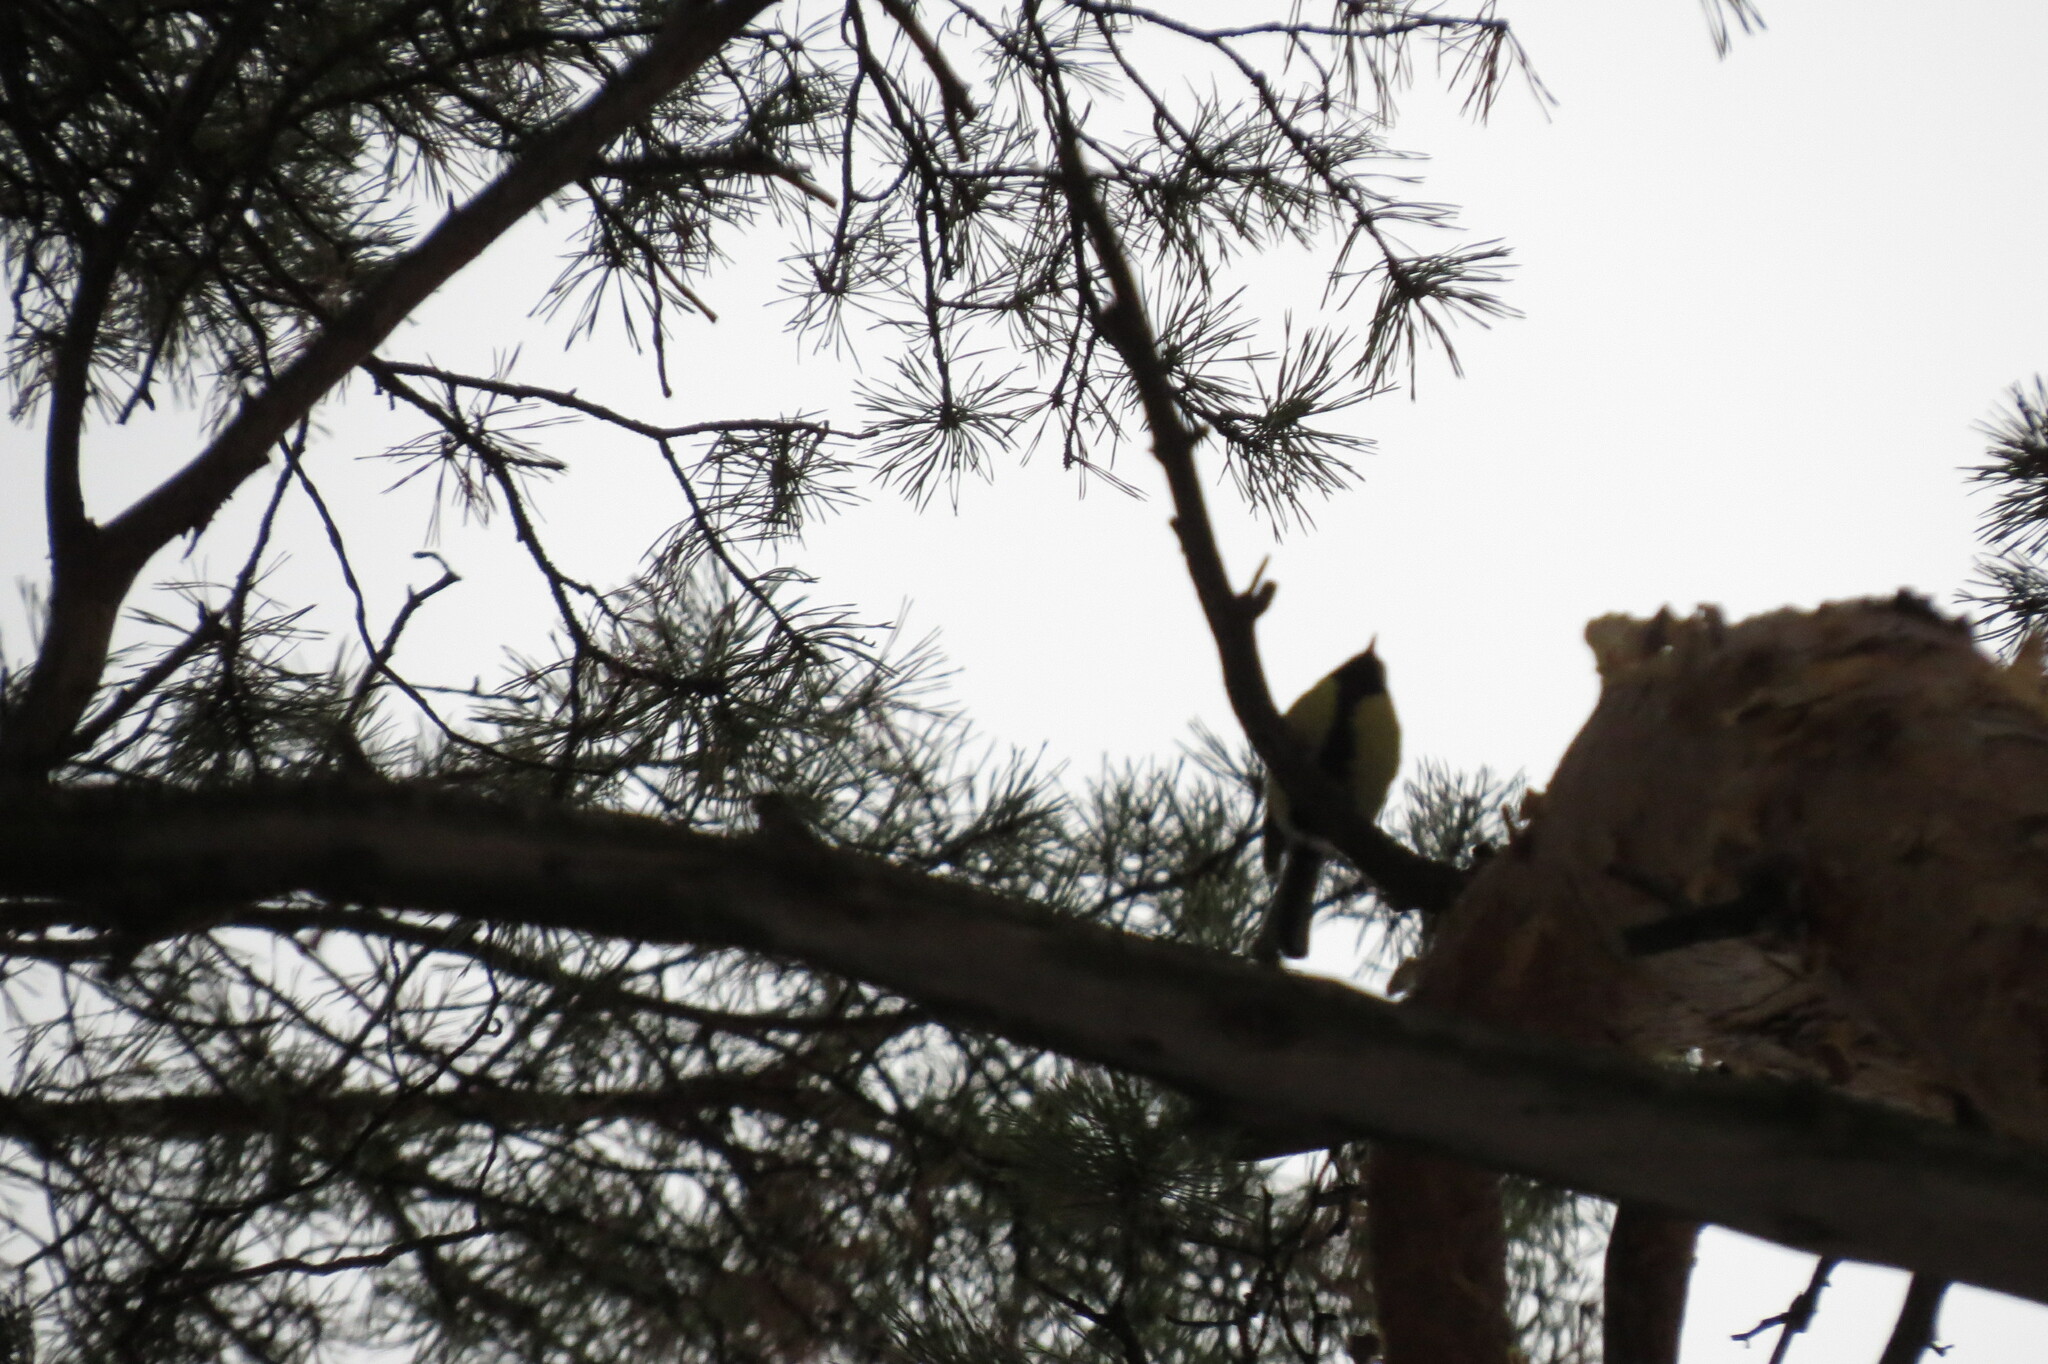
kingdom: Animalia
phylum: Chordata
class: Aves
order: Passeriformes
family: Paridae
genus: Parus
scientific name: Parus major
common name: Great tit
